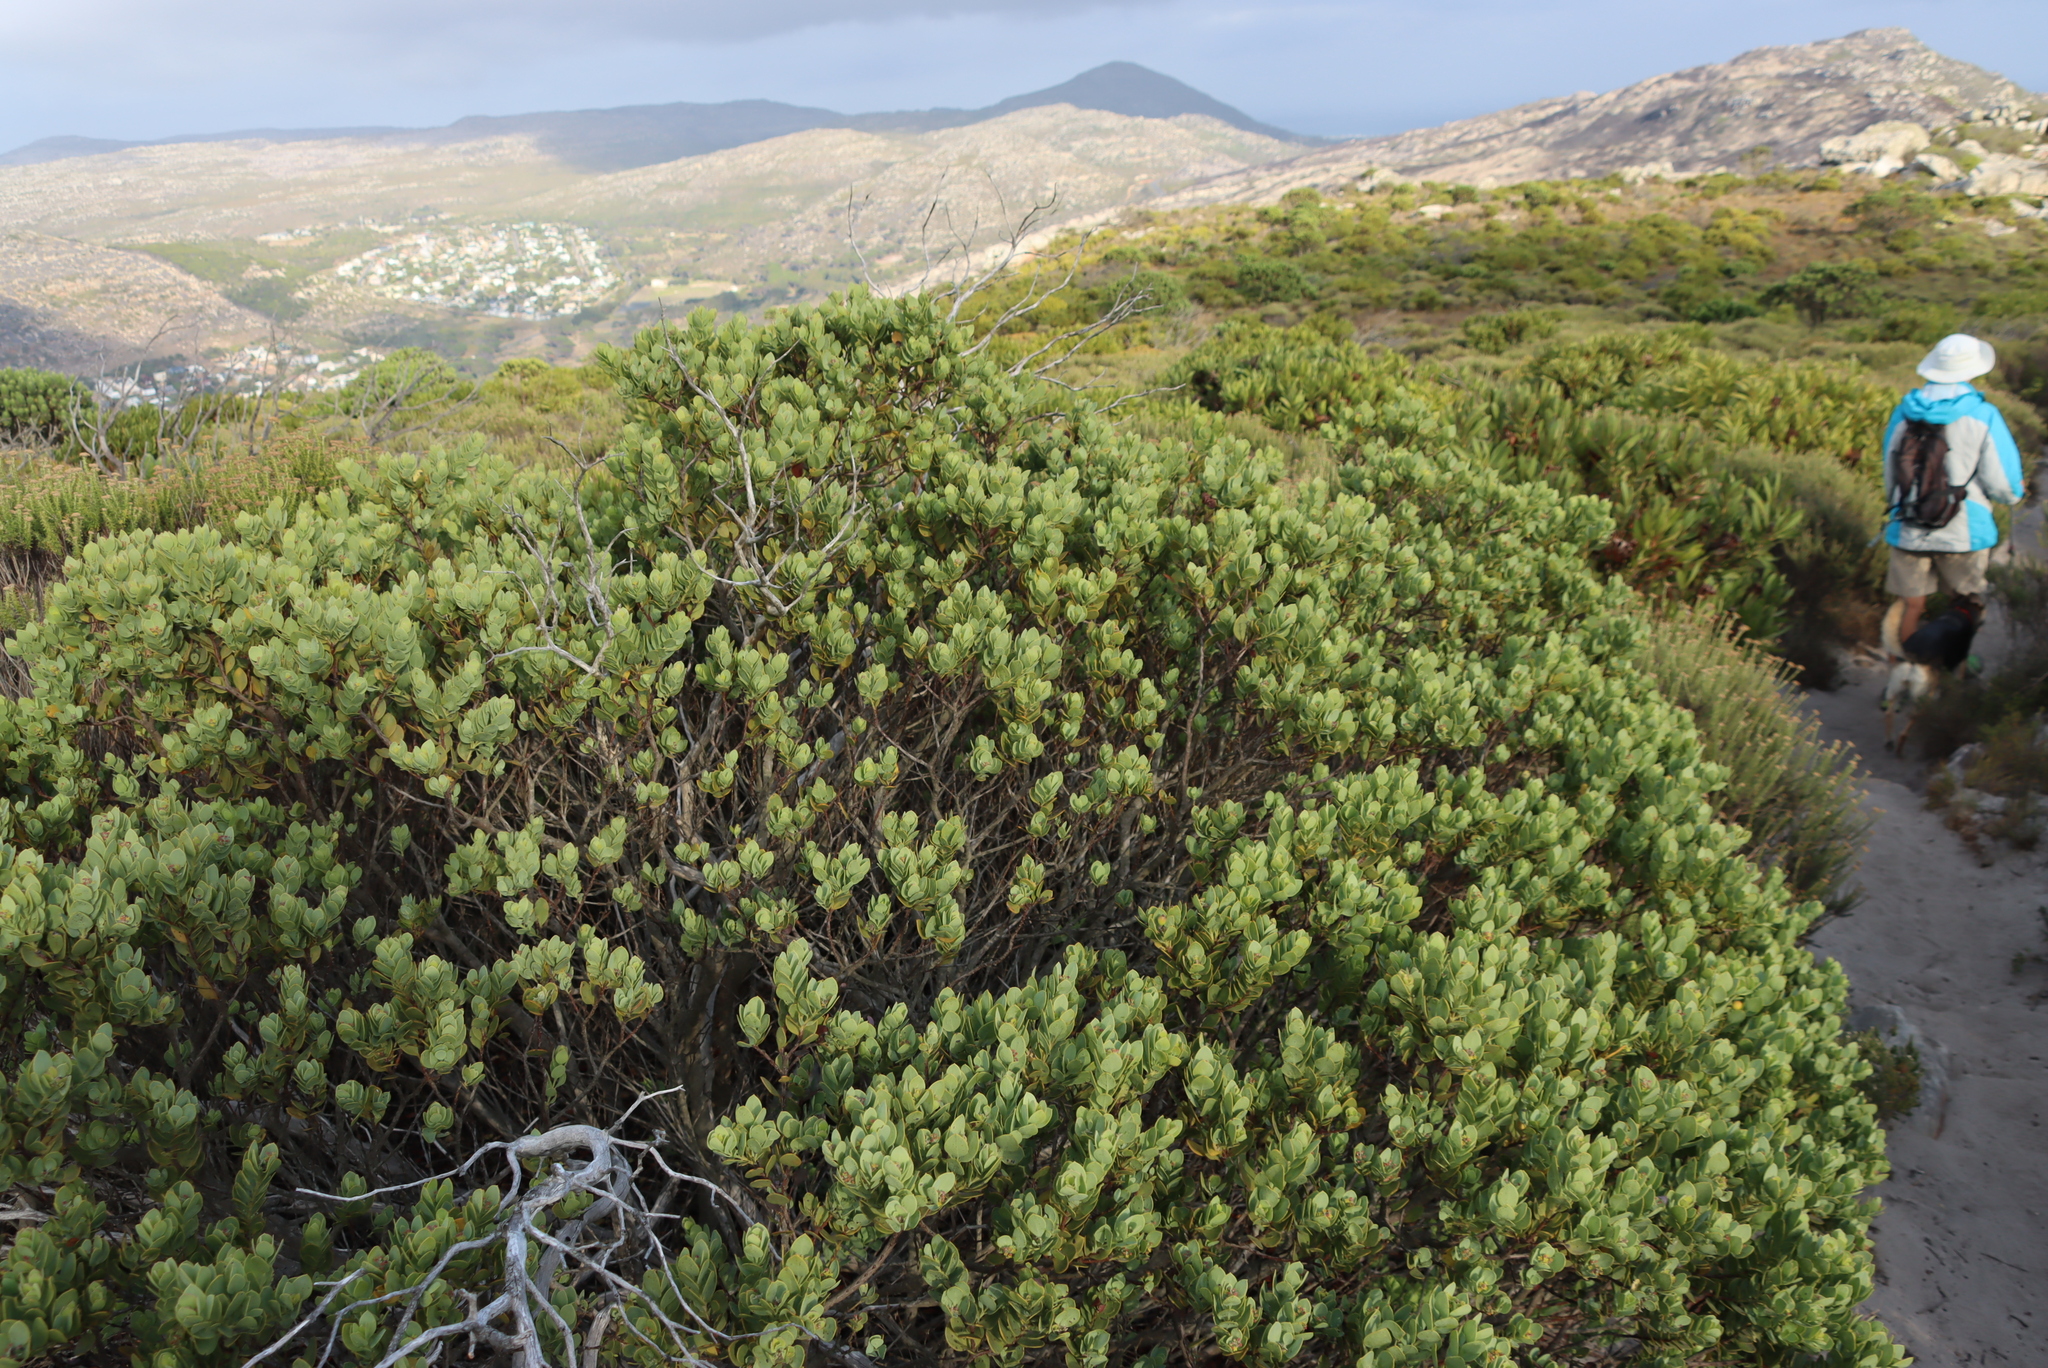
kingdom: Plantae
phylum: Tracheophyta
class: Magnoliopsida
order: Santalales
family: Santalaceae
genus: Osyris
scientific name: Osyris compressa
